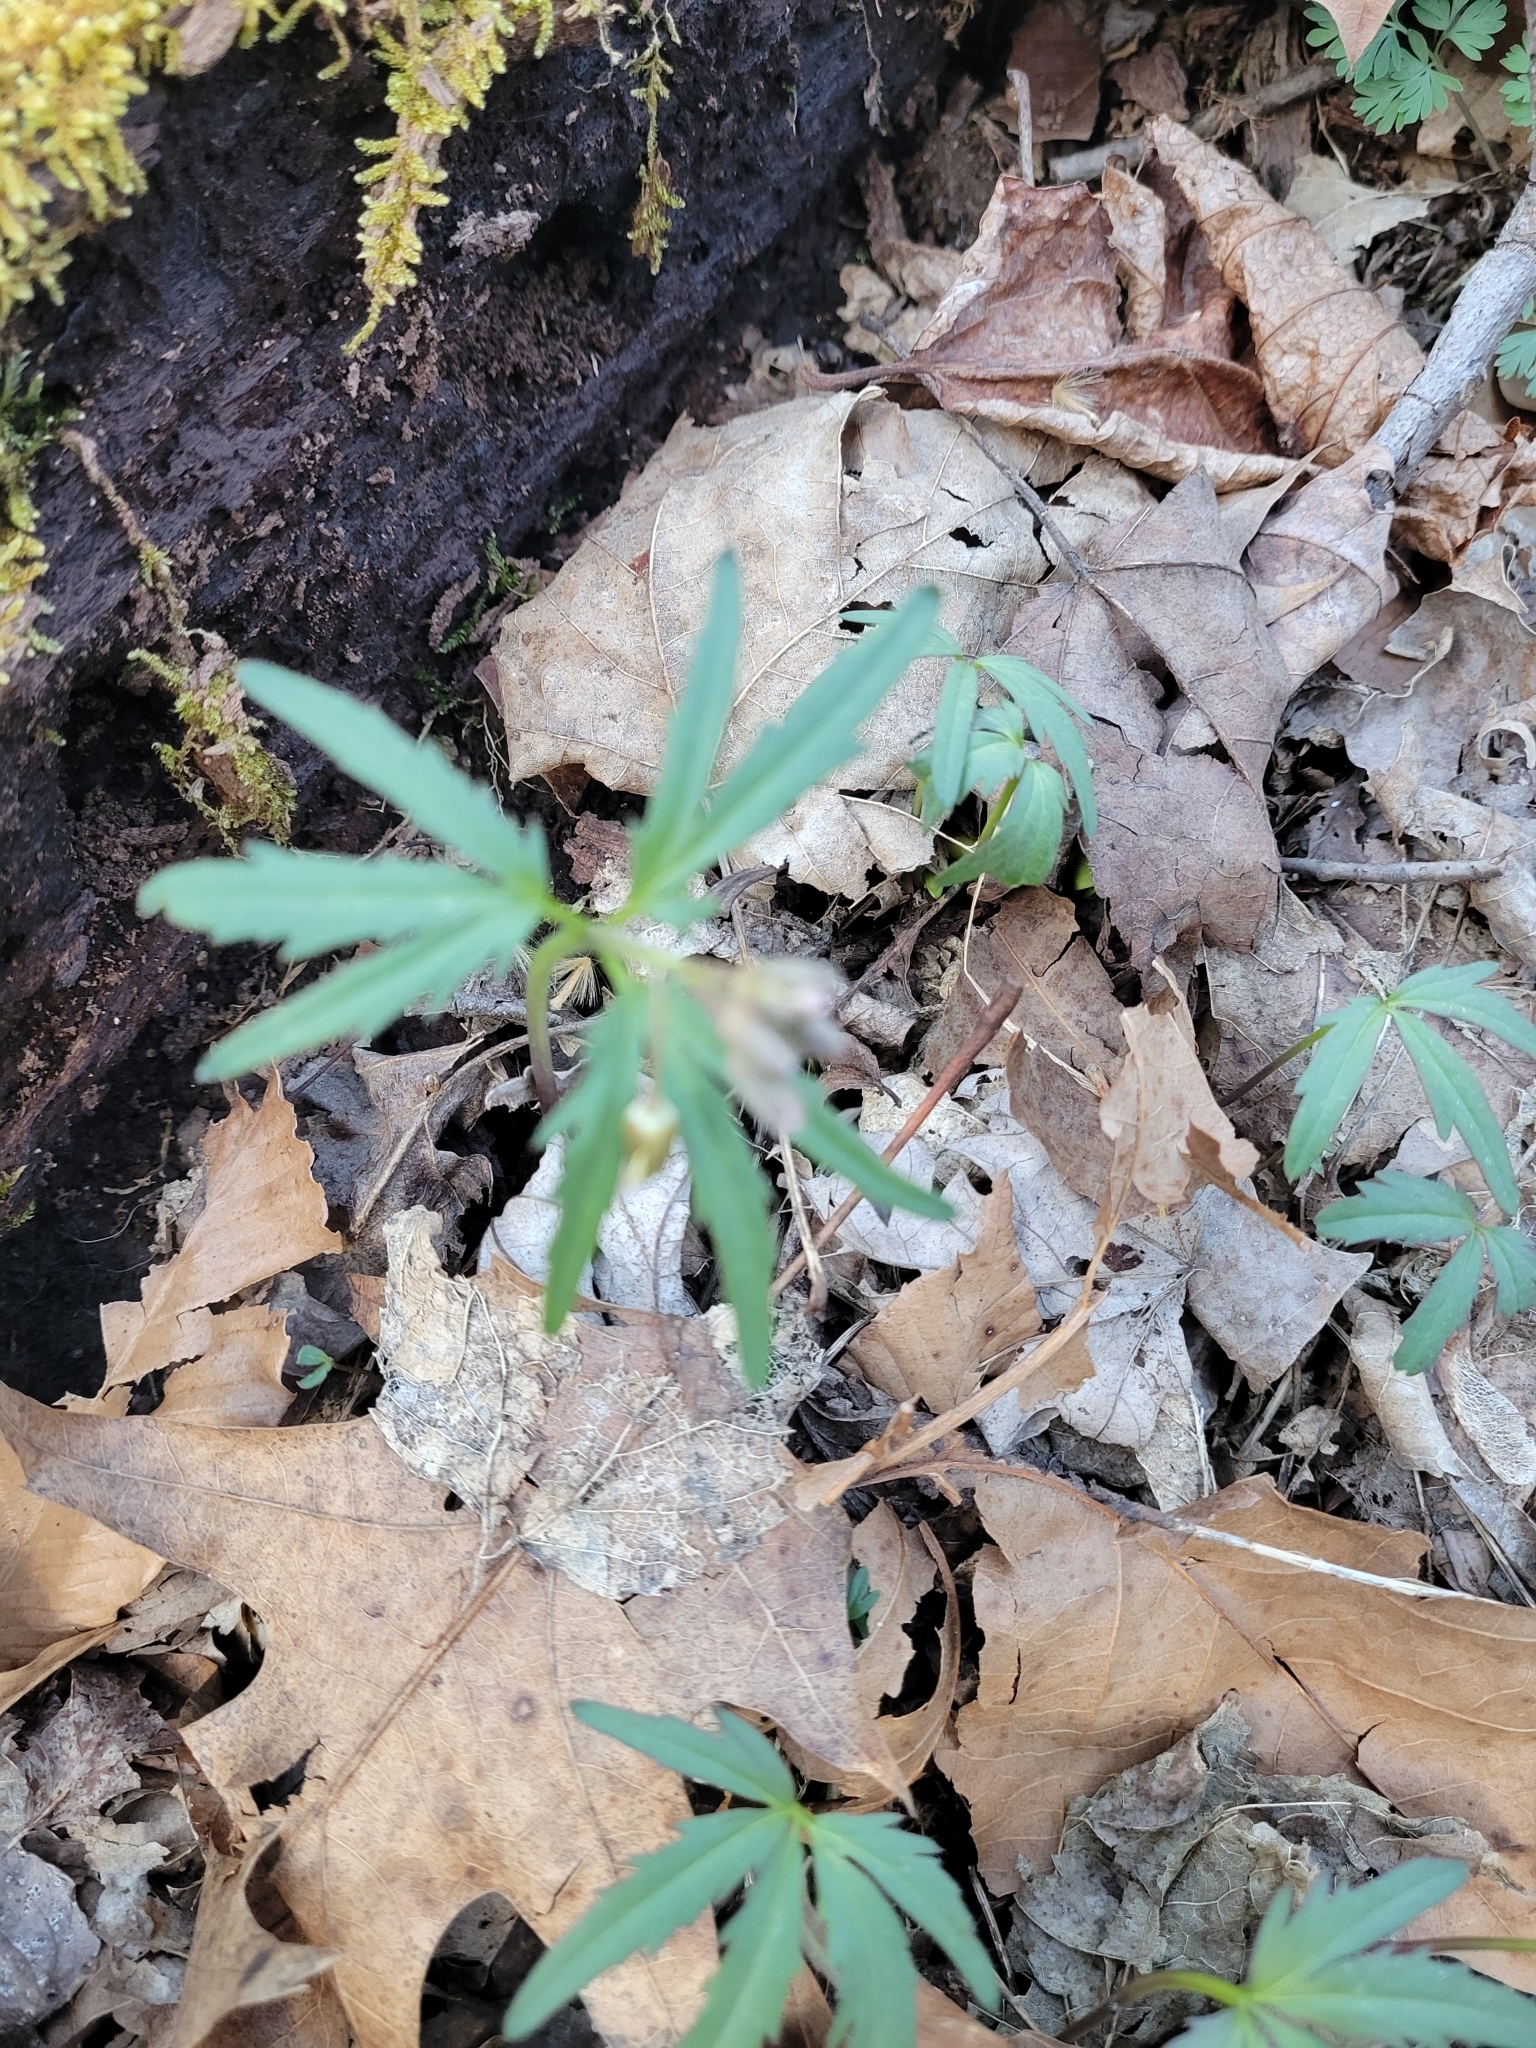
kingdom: Plantae
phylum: Tracheophyta
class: Magnoliopsida
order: Brassicales
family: Brassicaceae
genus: Cardamine
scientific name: Cardamine concatenata
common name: Cut-leaf toothcup
